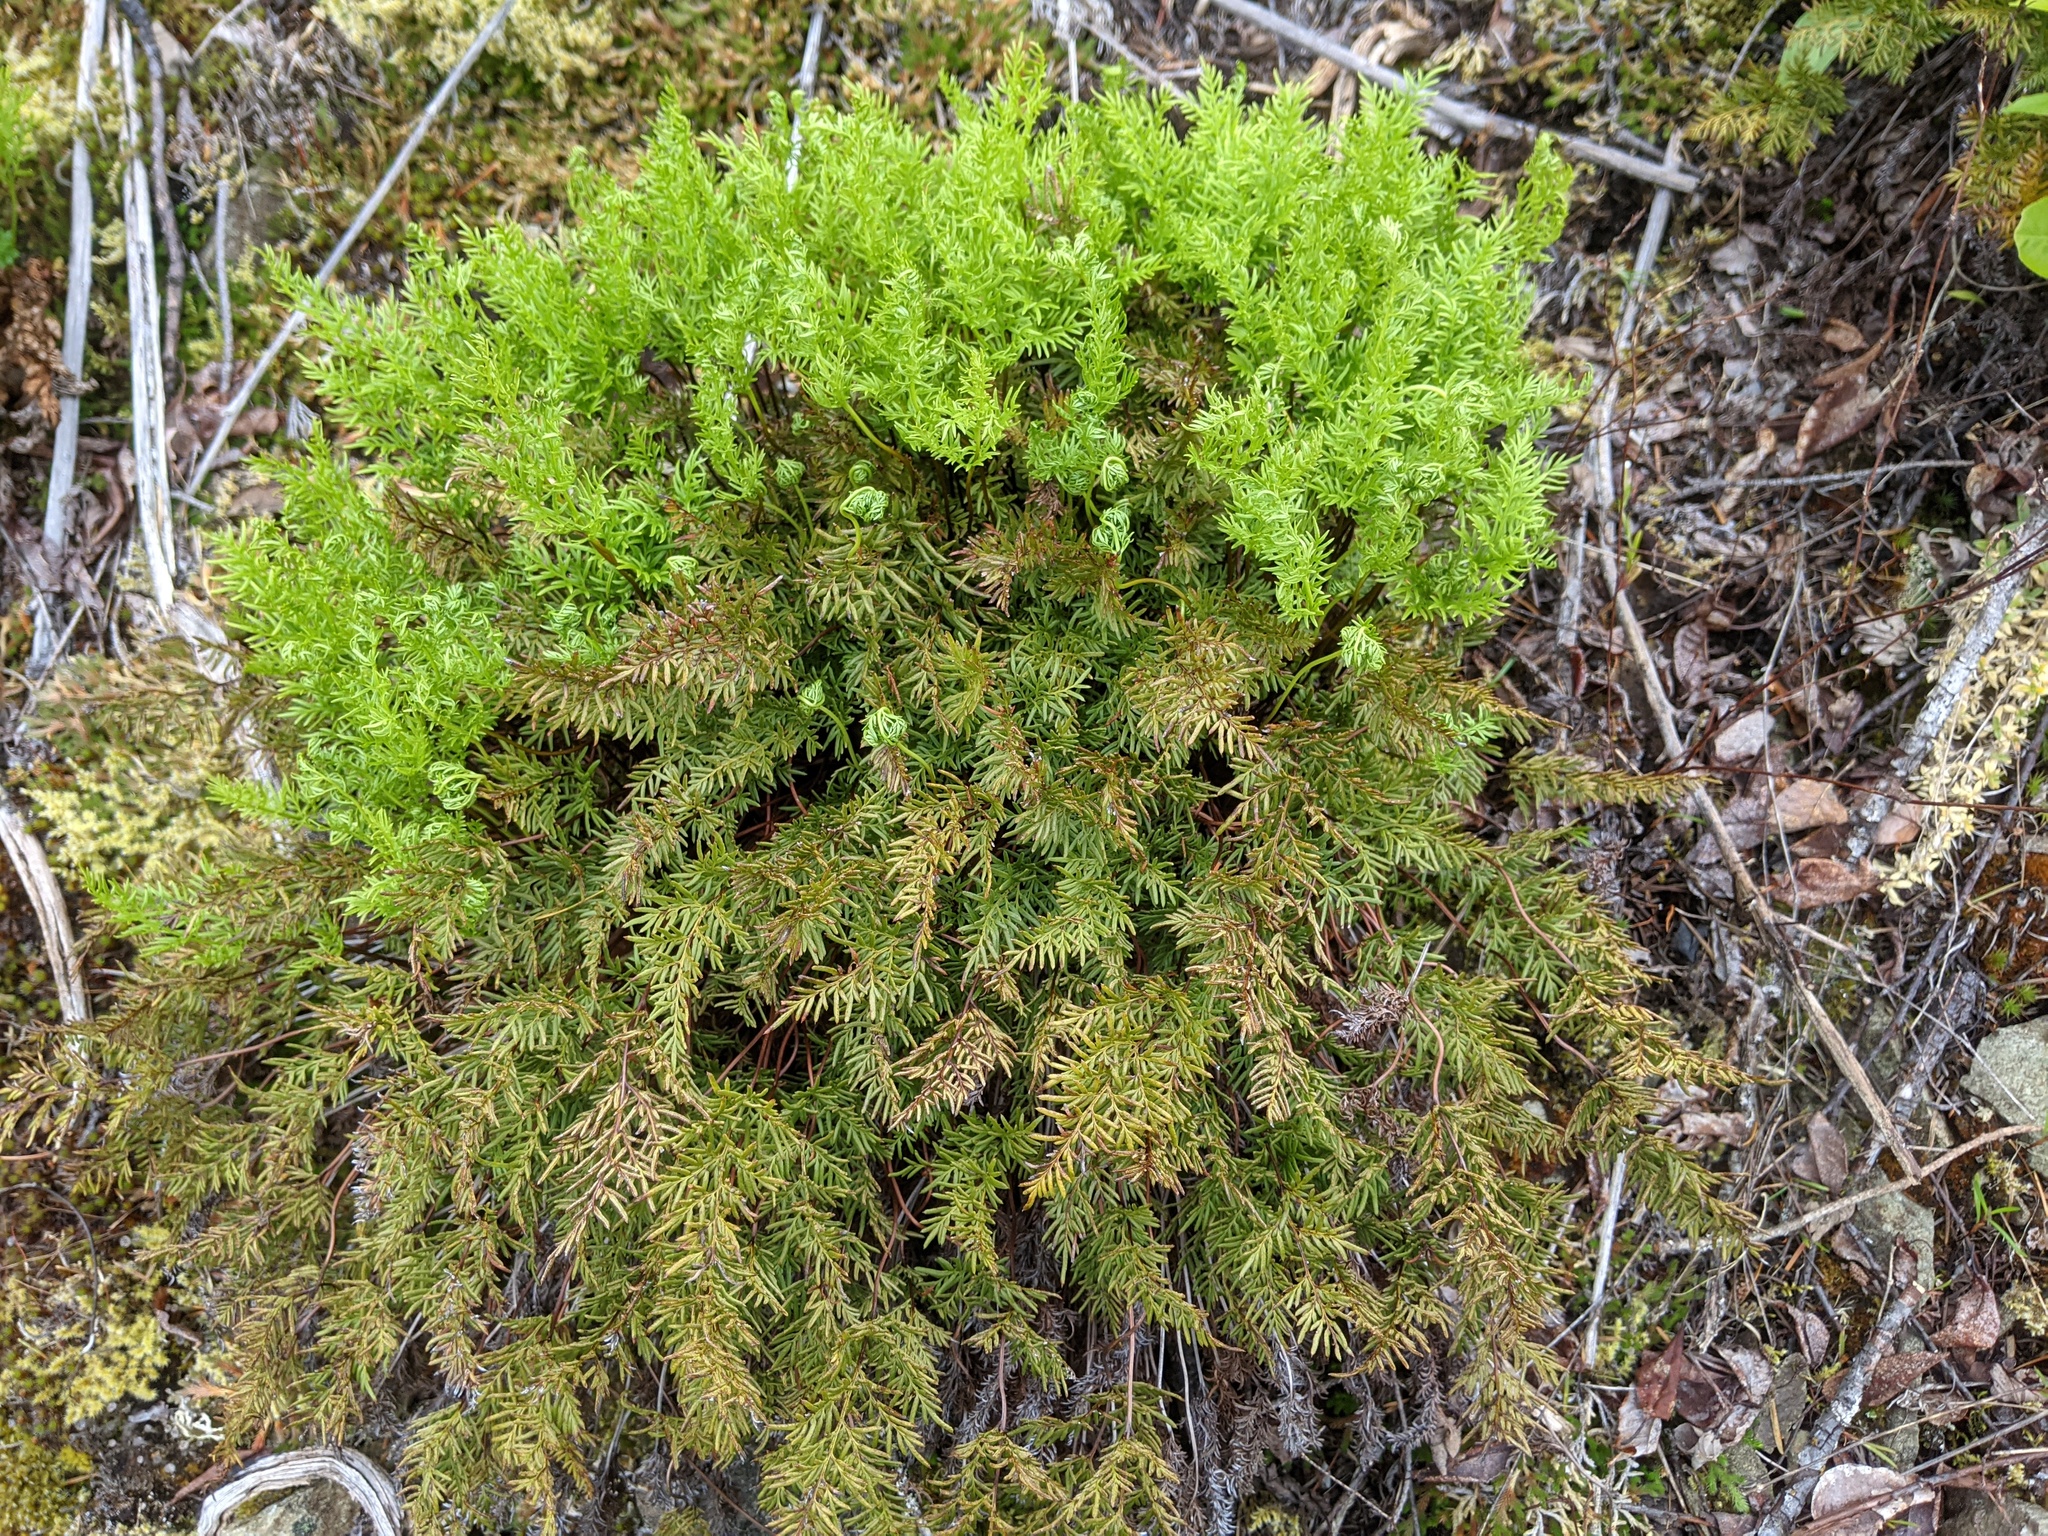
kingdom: Plantae
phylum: Tracheophyta
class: Polypodiopsida
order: Polypodiales
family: Pteridaceae
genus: Aspidotis
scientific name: Aspidotis densa
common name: Indian's dream
